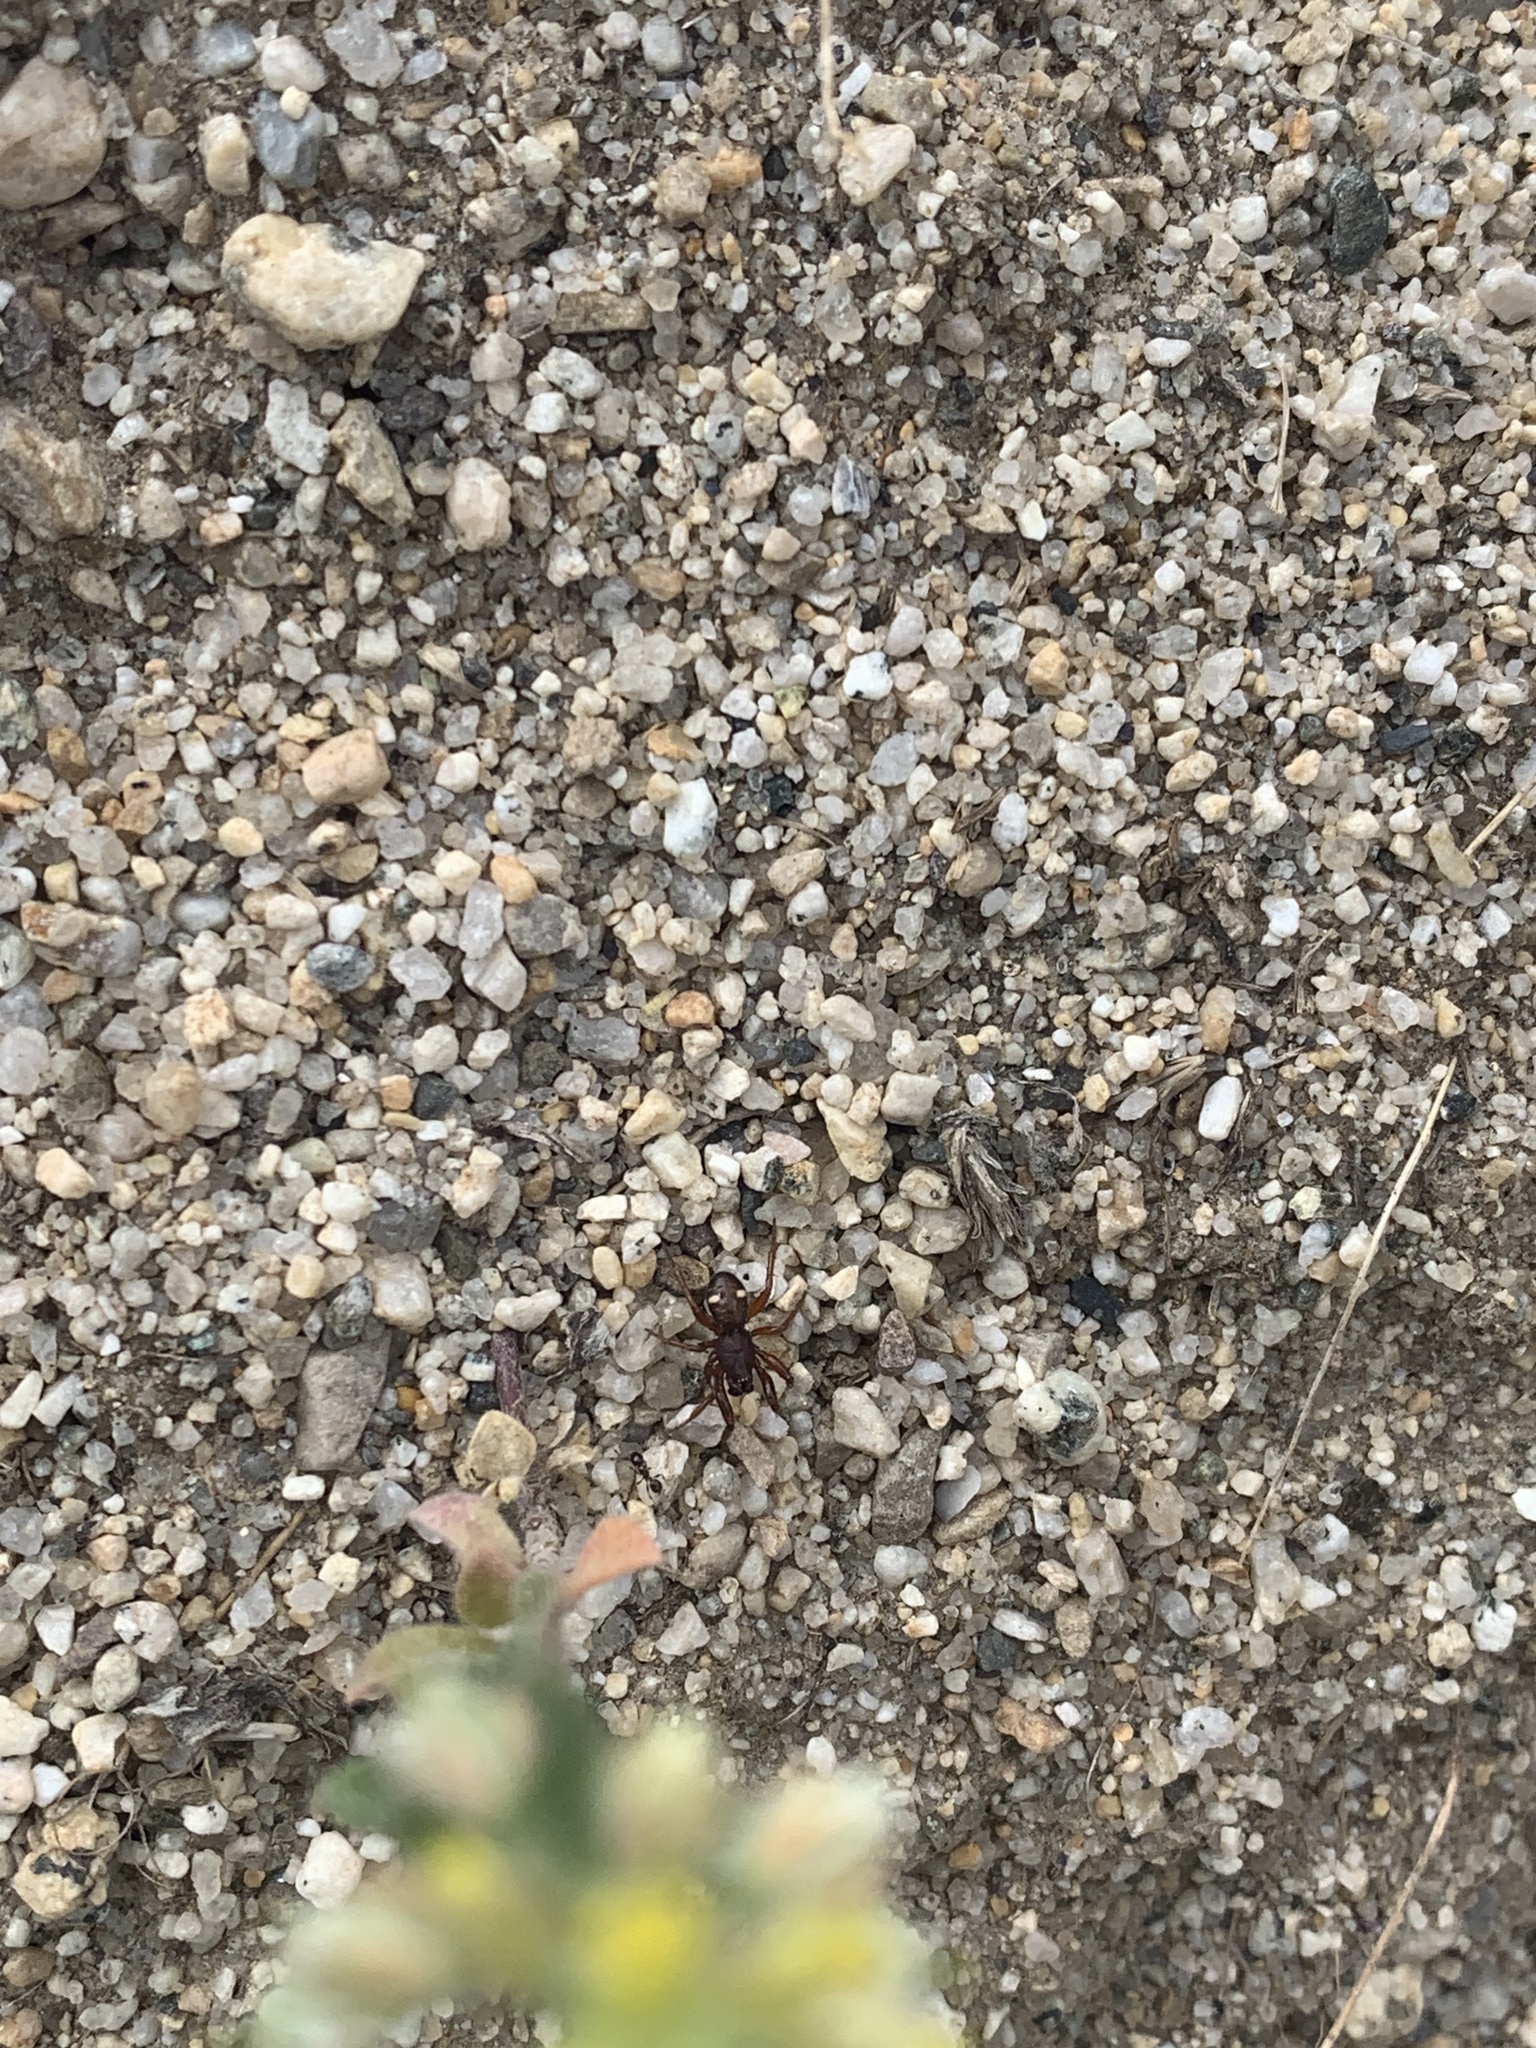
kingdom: Animalia
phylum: Arthropoda
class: Arachnida
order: Araneae
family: Theridiidae
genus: Asagena
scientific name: Asagena americana
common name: Two-spotted cobweb spider
